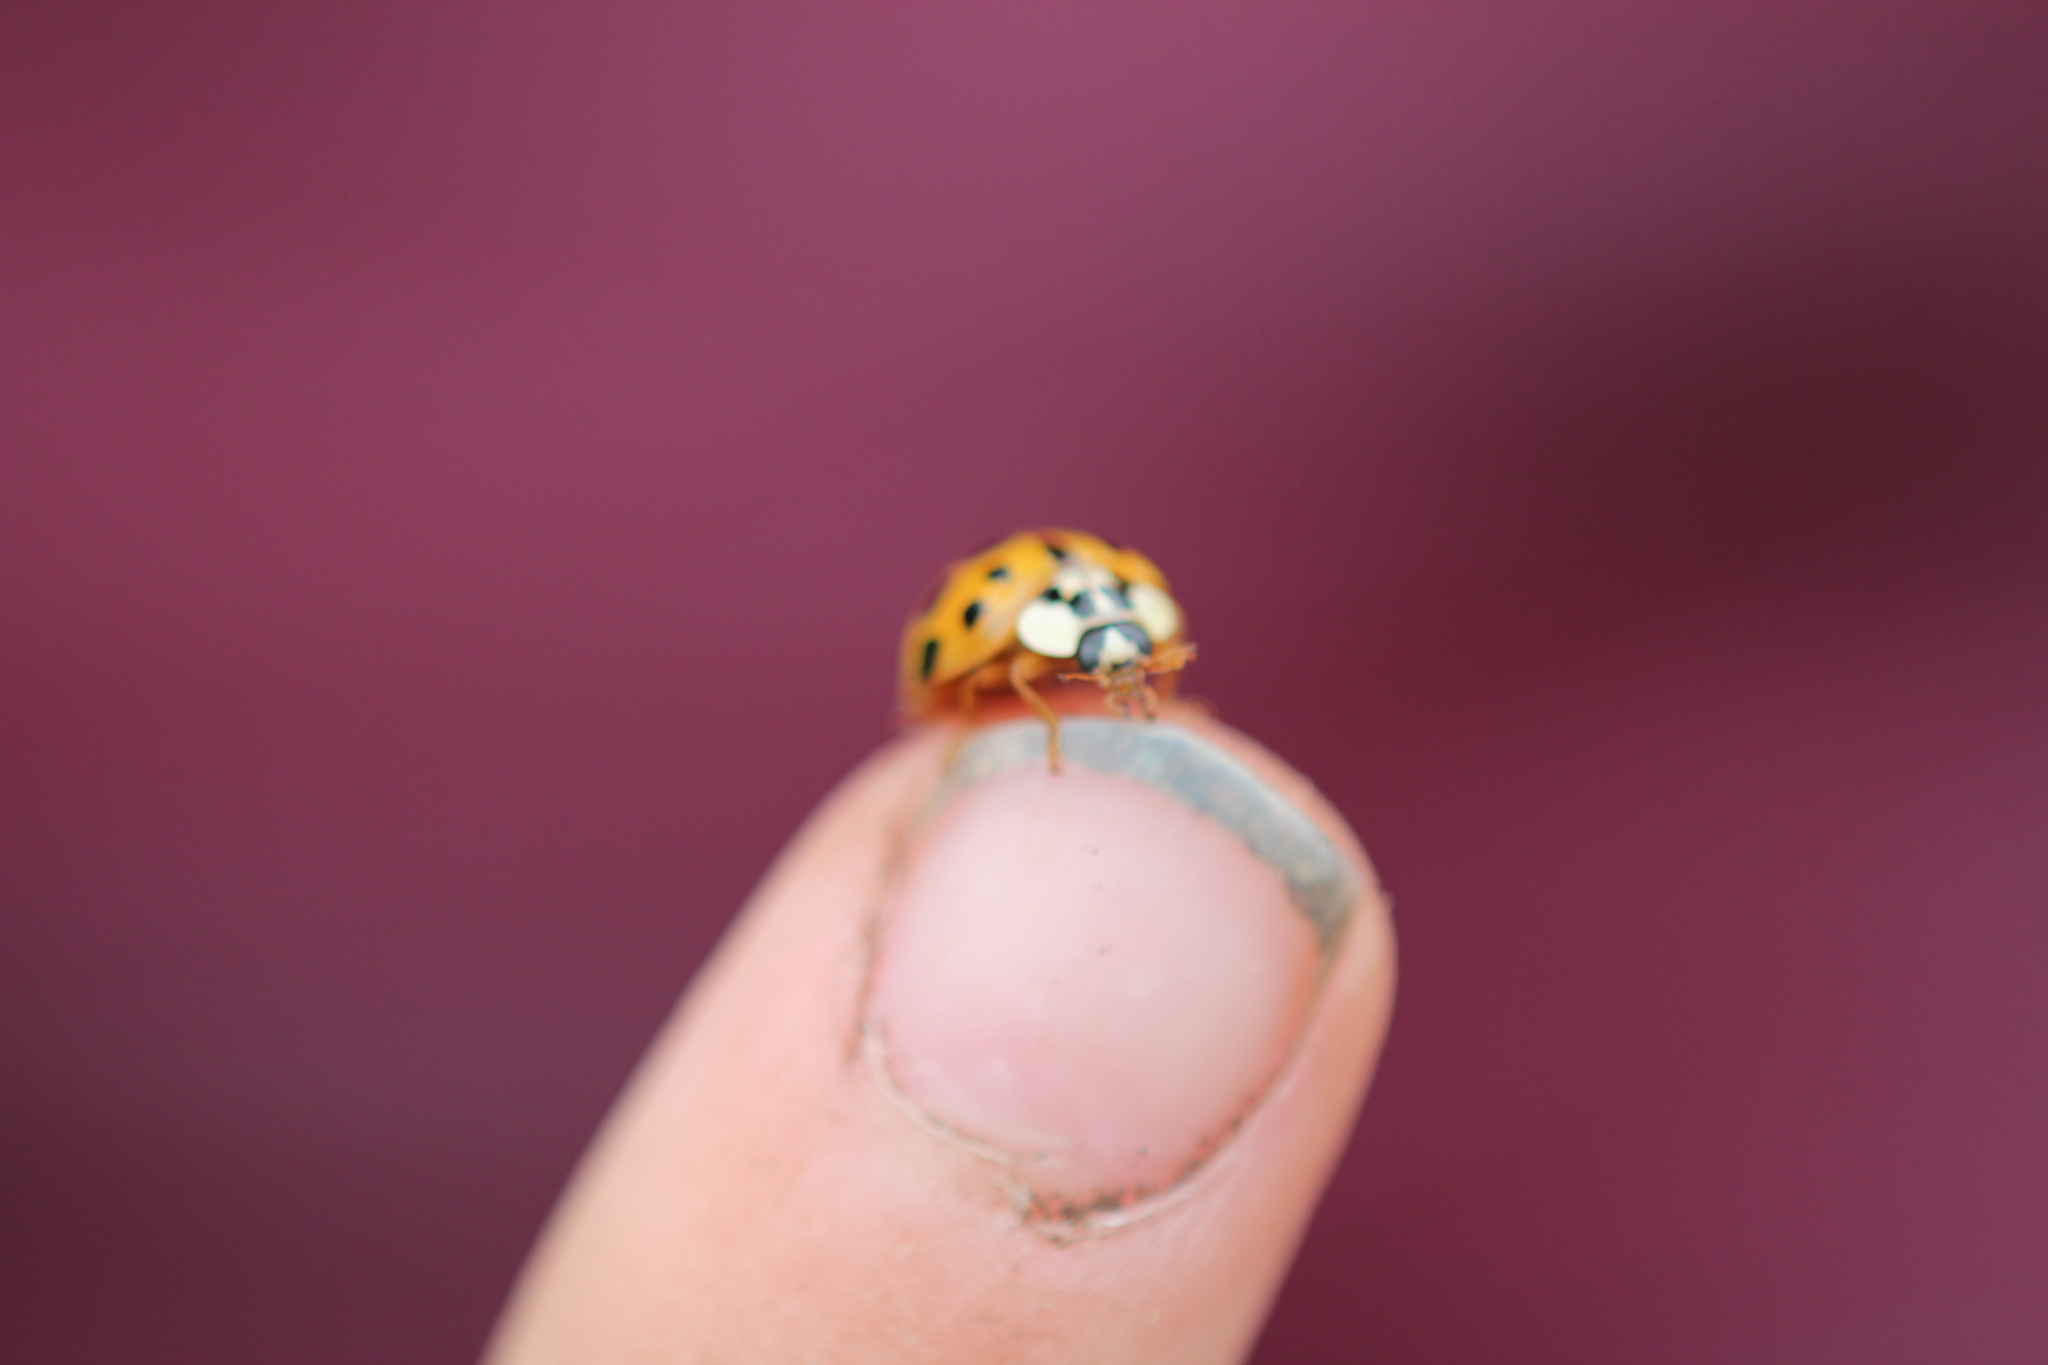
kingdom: Animalia
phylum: Arthropoda
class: Insecta
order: Coleoptera
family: Coccinellidae
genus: Harmonia
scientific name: Harmonia axyridis
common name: Harlequin ladybird
